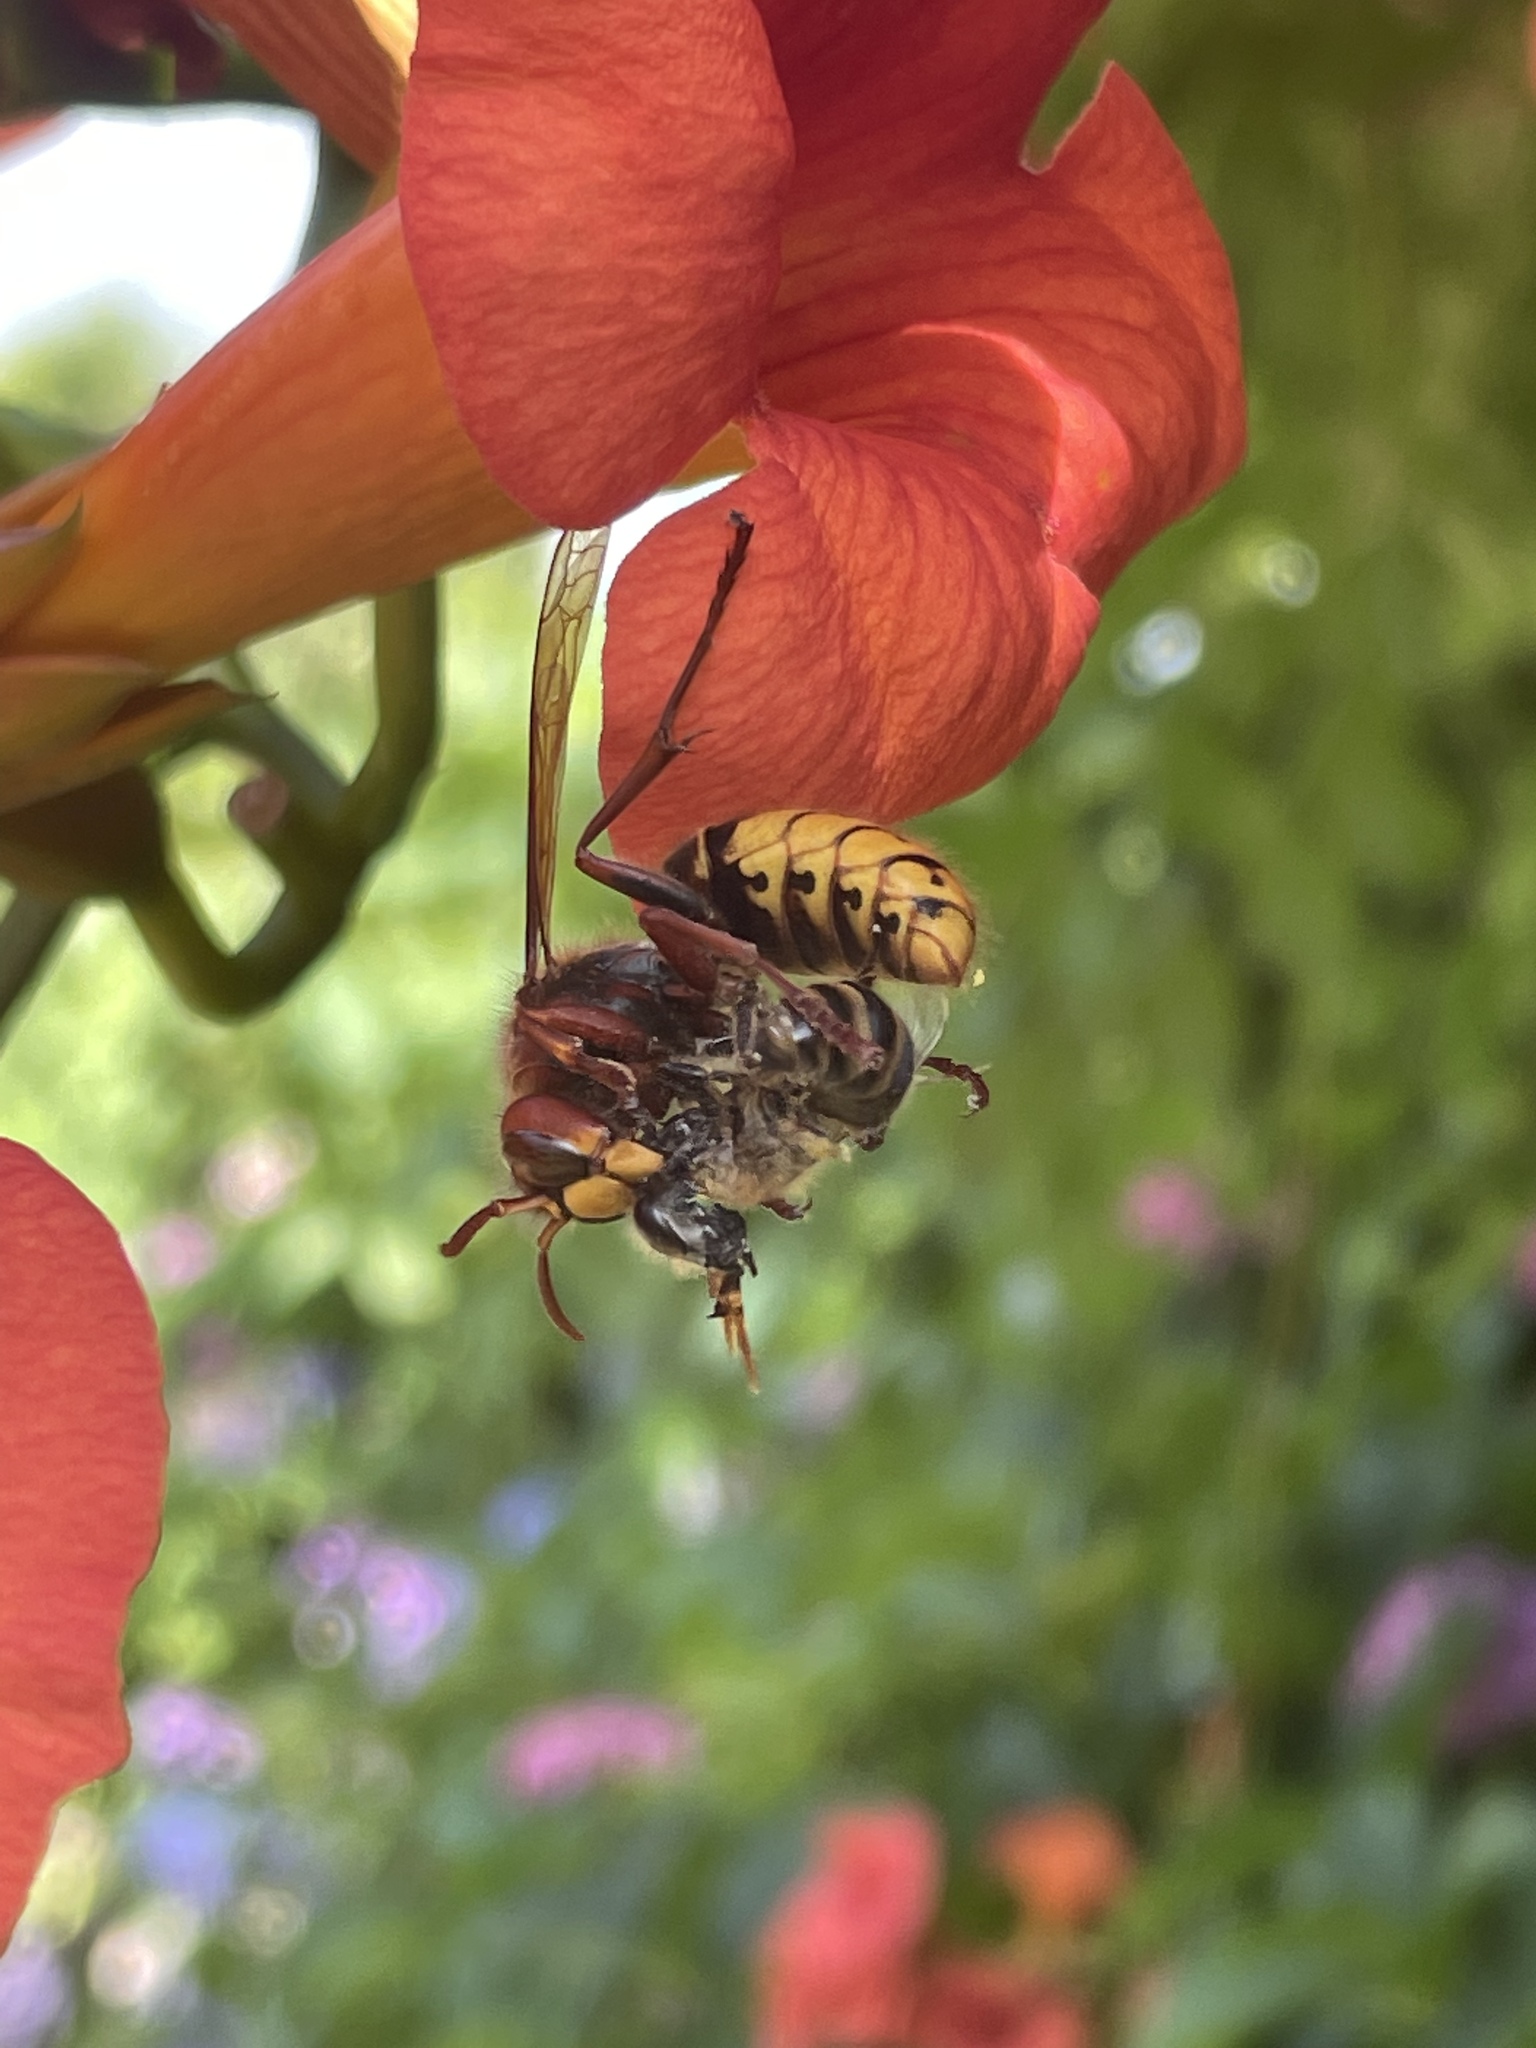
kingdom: Animalia
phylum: Arthropoda
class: Insecta
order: Hymenoptera
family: Vespidae
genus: Vespa
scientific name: Vespa crabro
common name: Hornet
